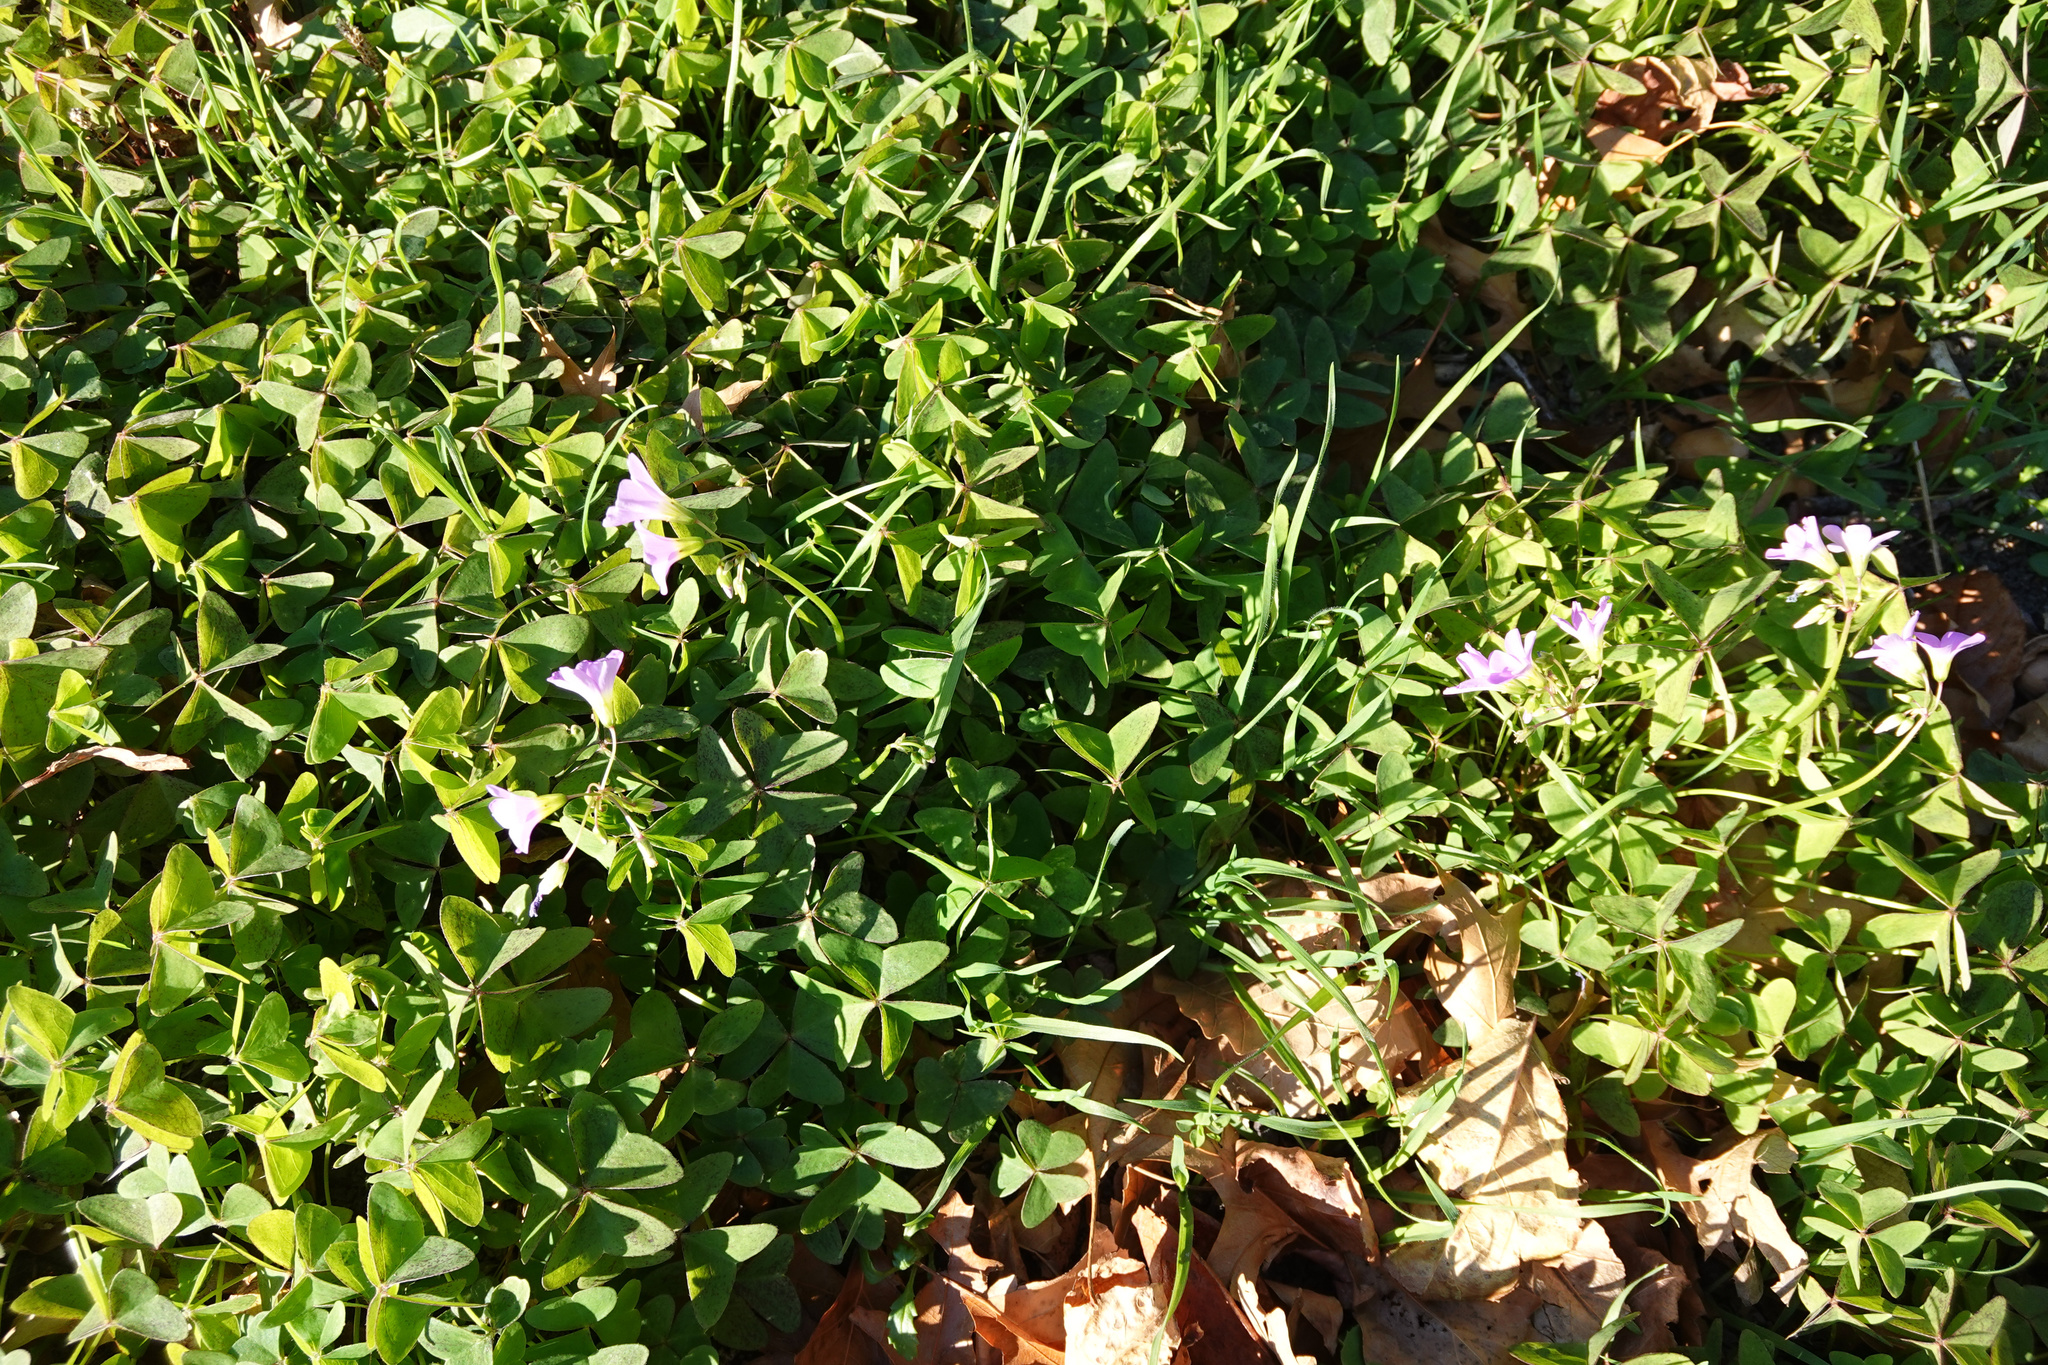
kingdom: Plantae
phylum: Tracheophyta
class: Magnoliopsida
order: Oxalidales
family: Oxalidaceae
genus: Oxalis
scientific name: Oxalis latifolia
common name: Garden pink-sorrel
